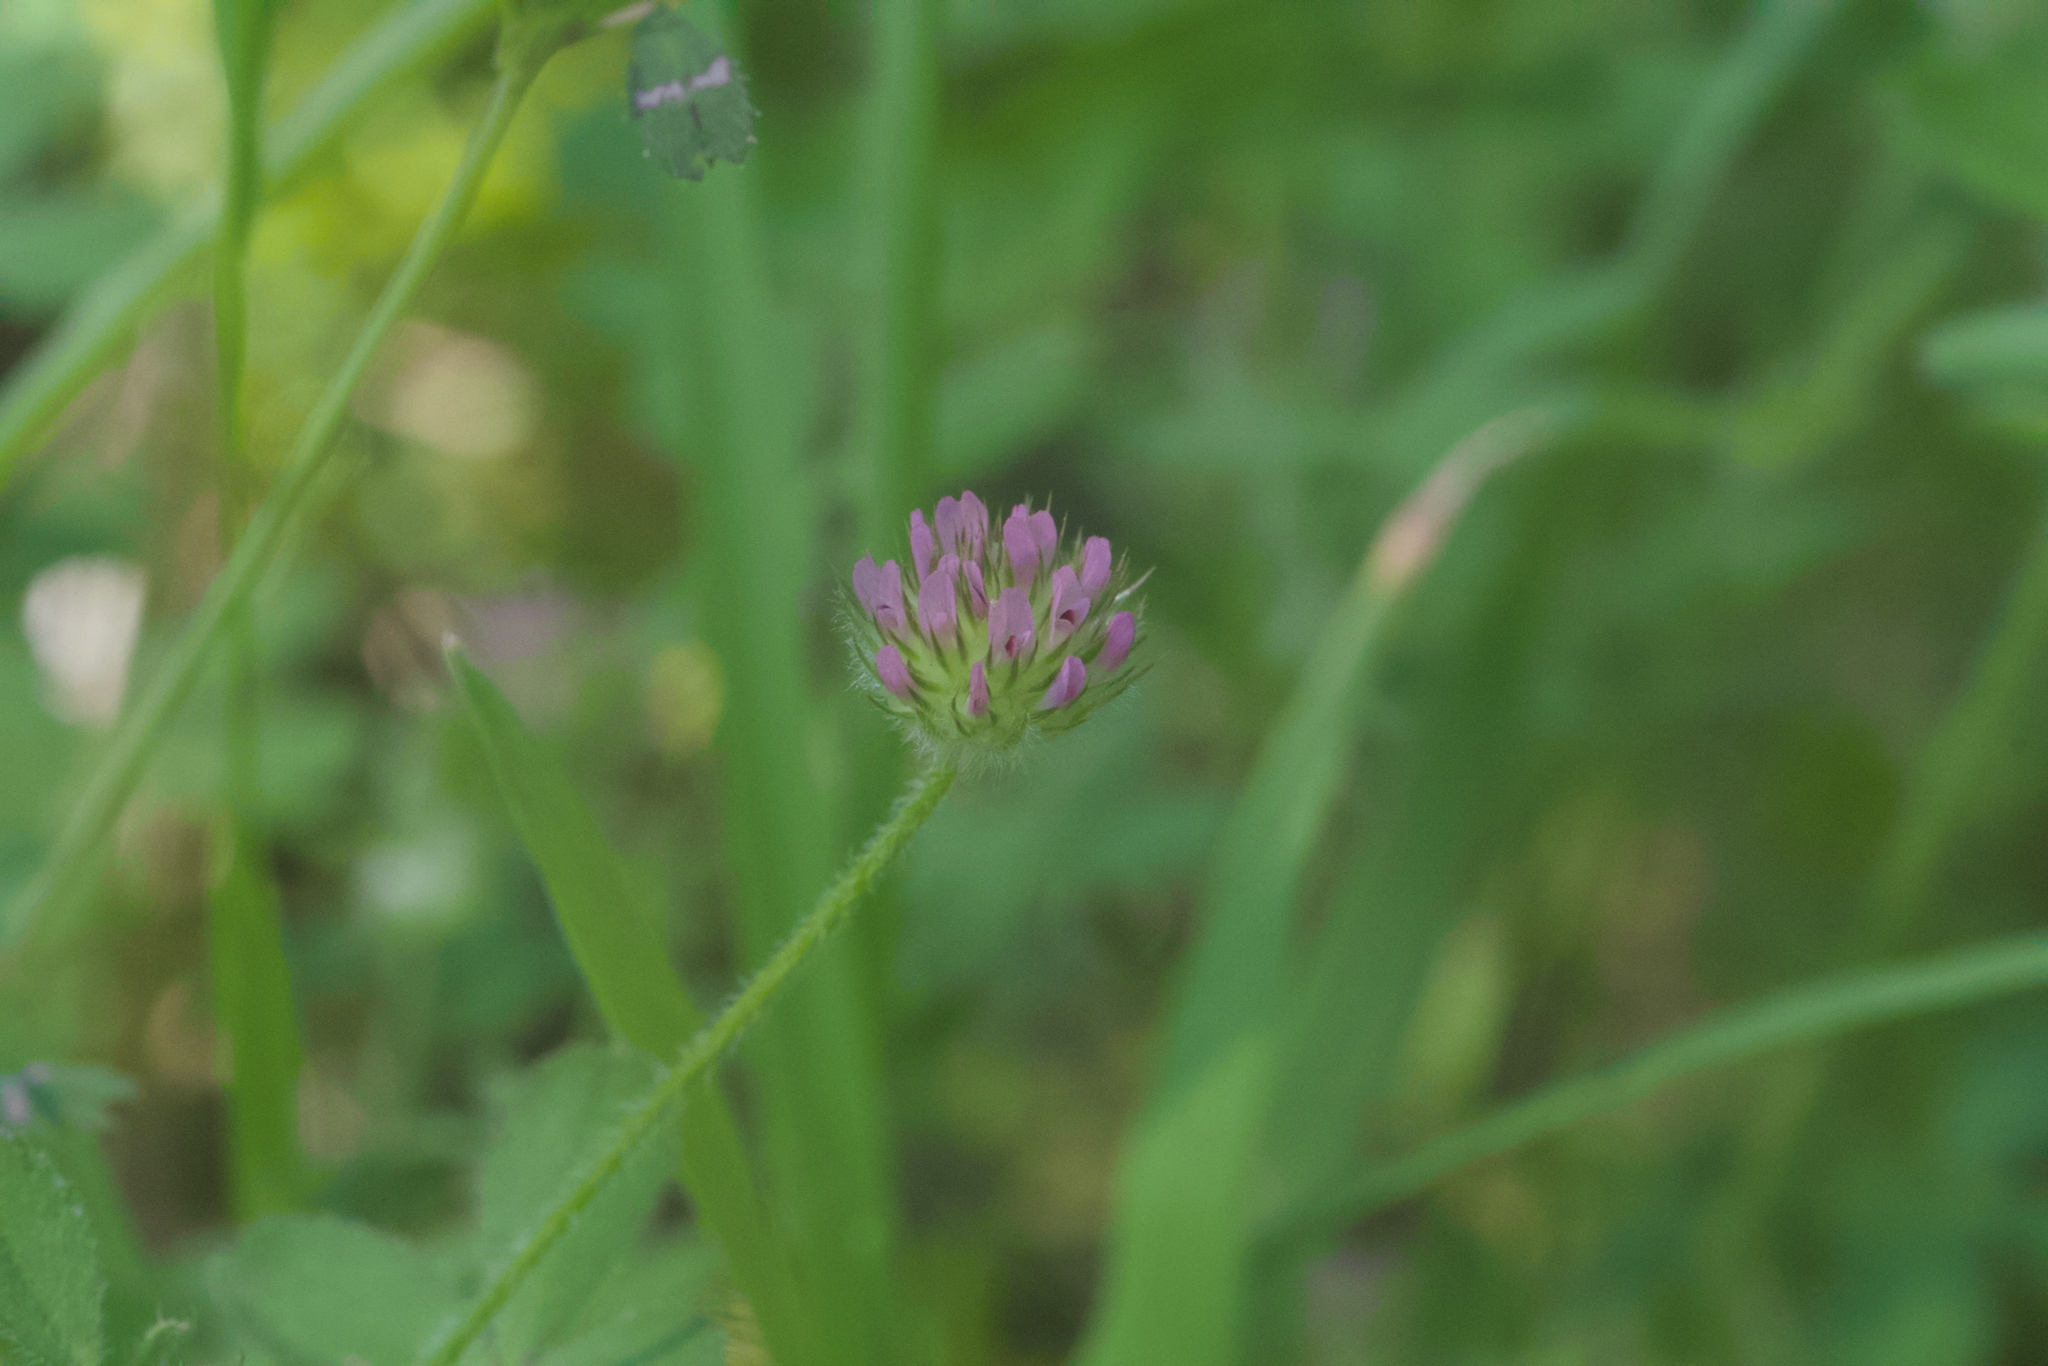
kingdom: Plantae
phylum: Tracheophyta
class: Magnoliopsida
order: Fabales
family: Fabaceae
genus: Trifolium
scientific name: Trifolium microcephalum
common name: Maiden clover
